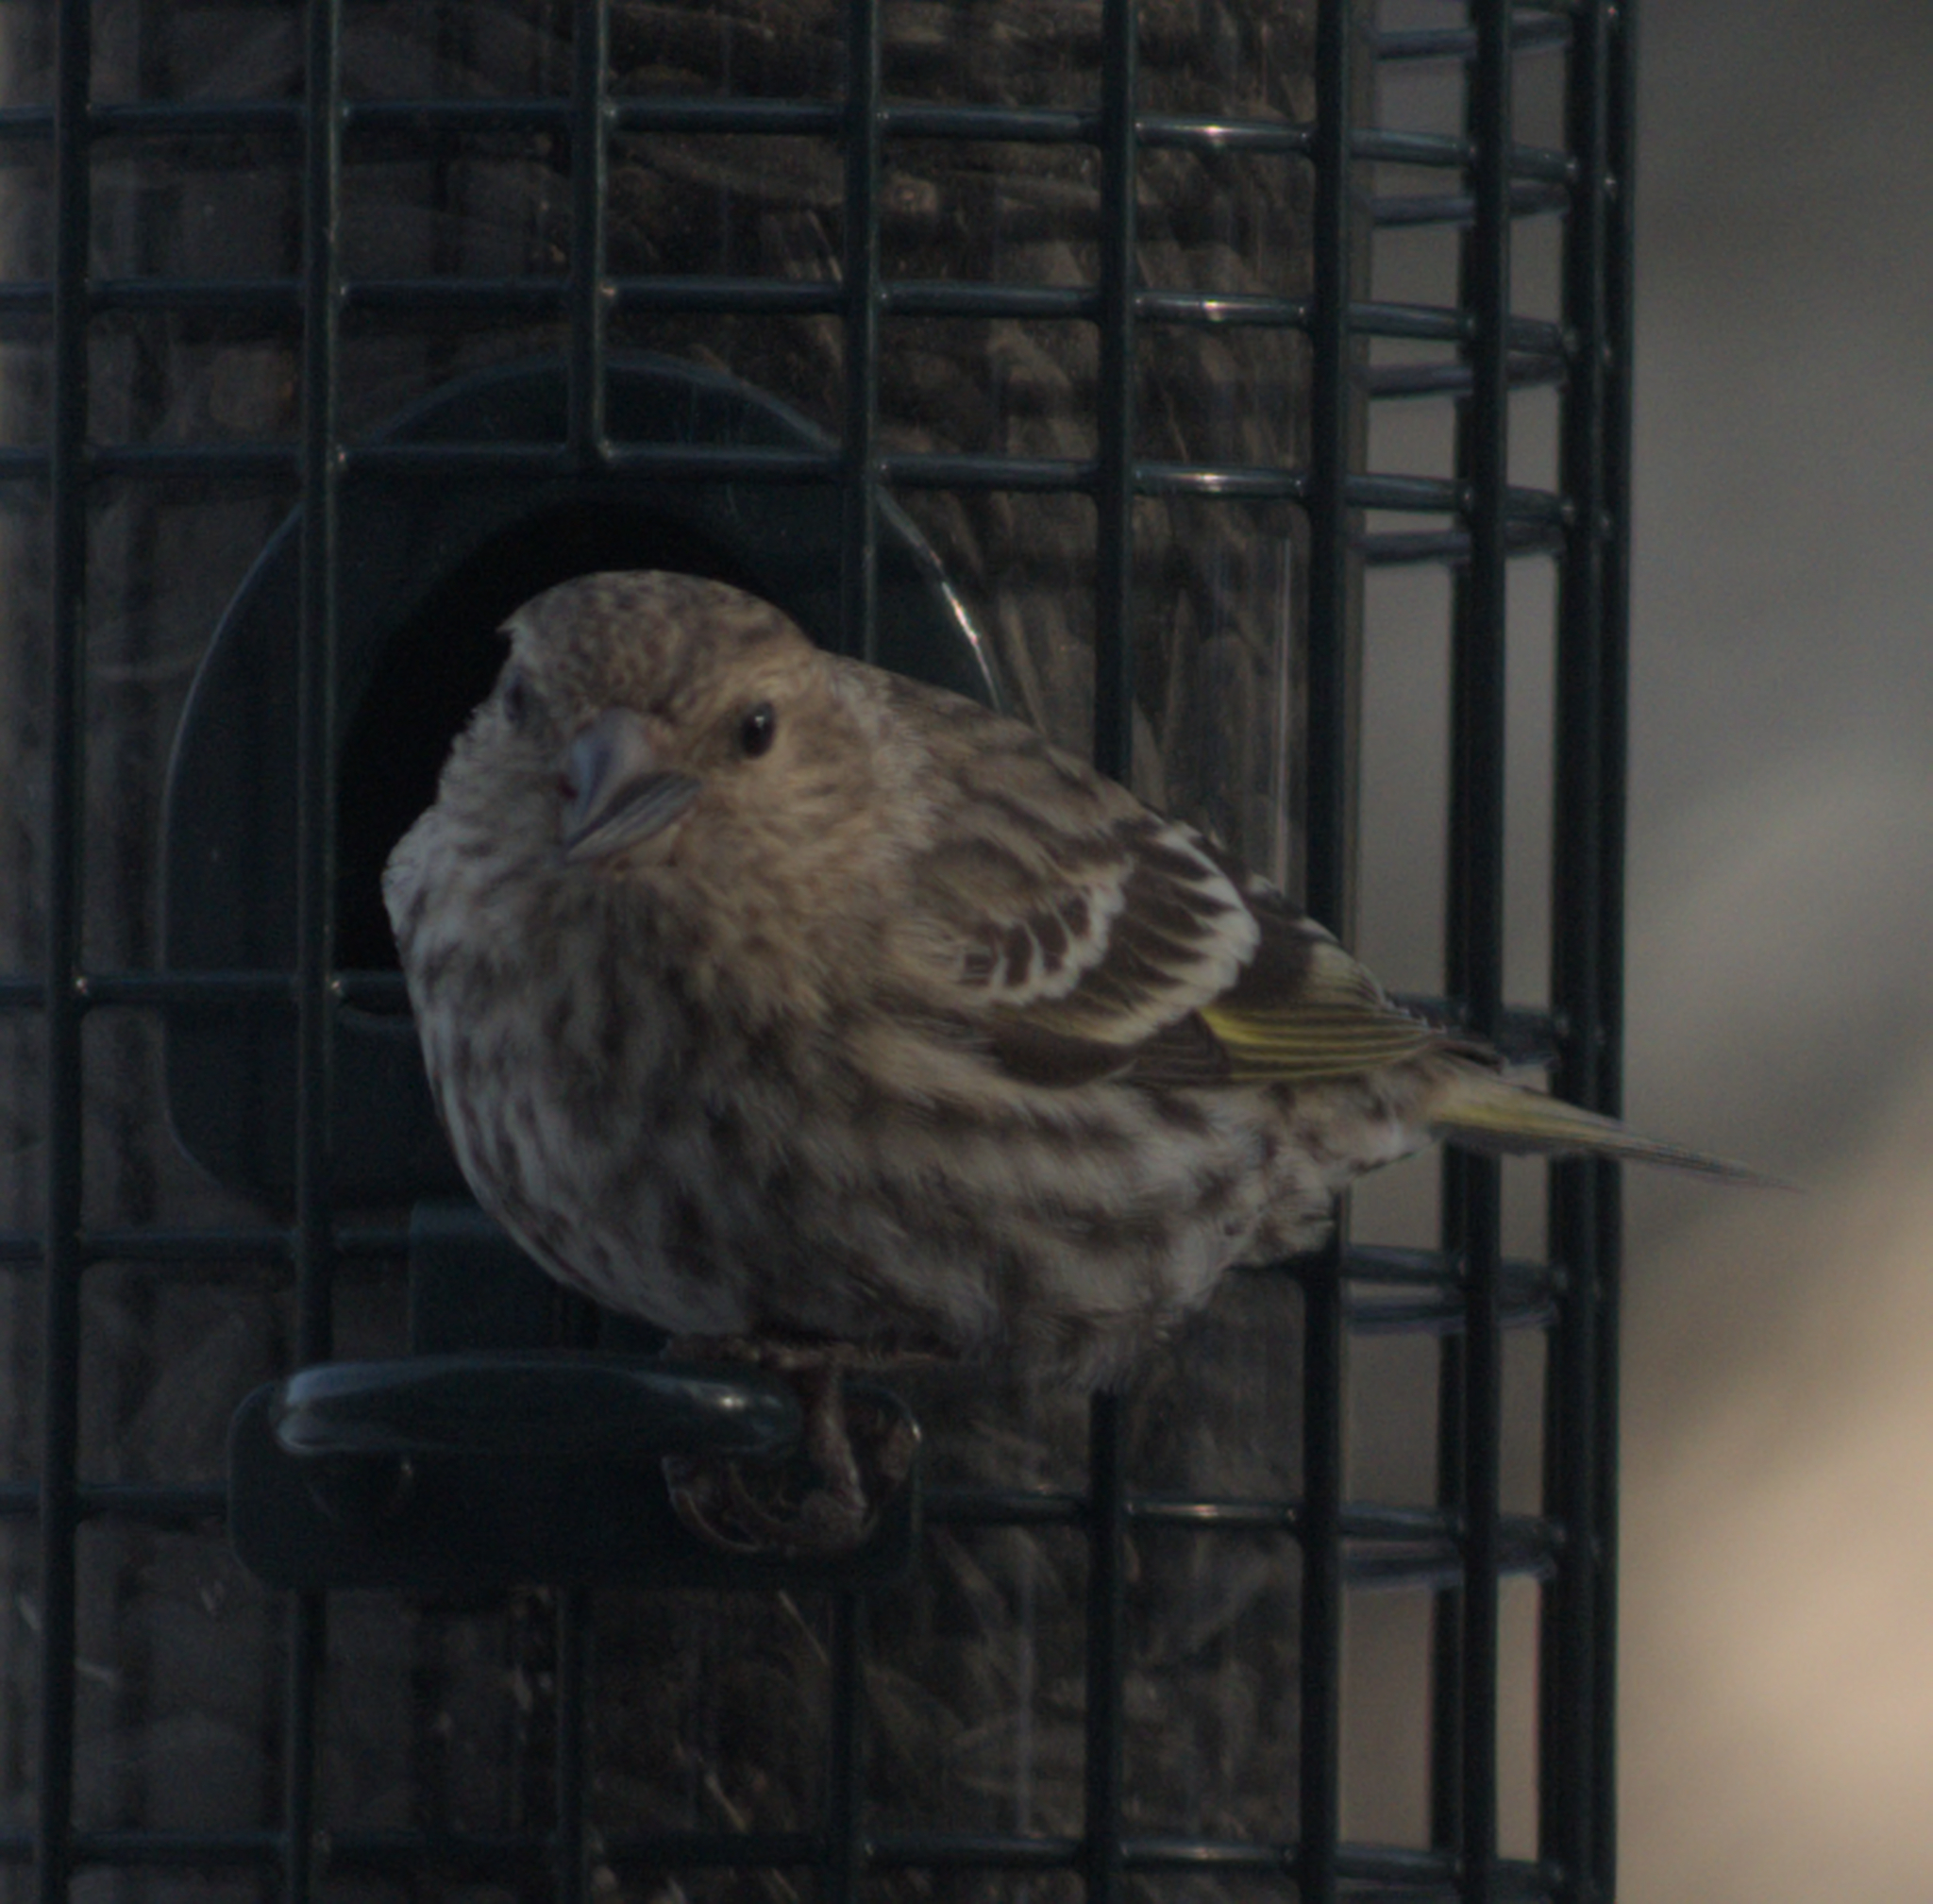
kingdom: Animalia
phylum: Chordata
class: Aves
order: Passeriformes
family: Fringillidae
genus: Spinus
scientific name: Spinus pinus
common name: Pine siskin
